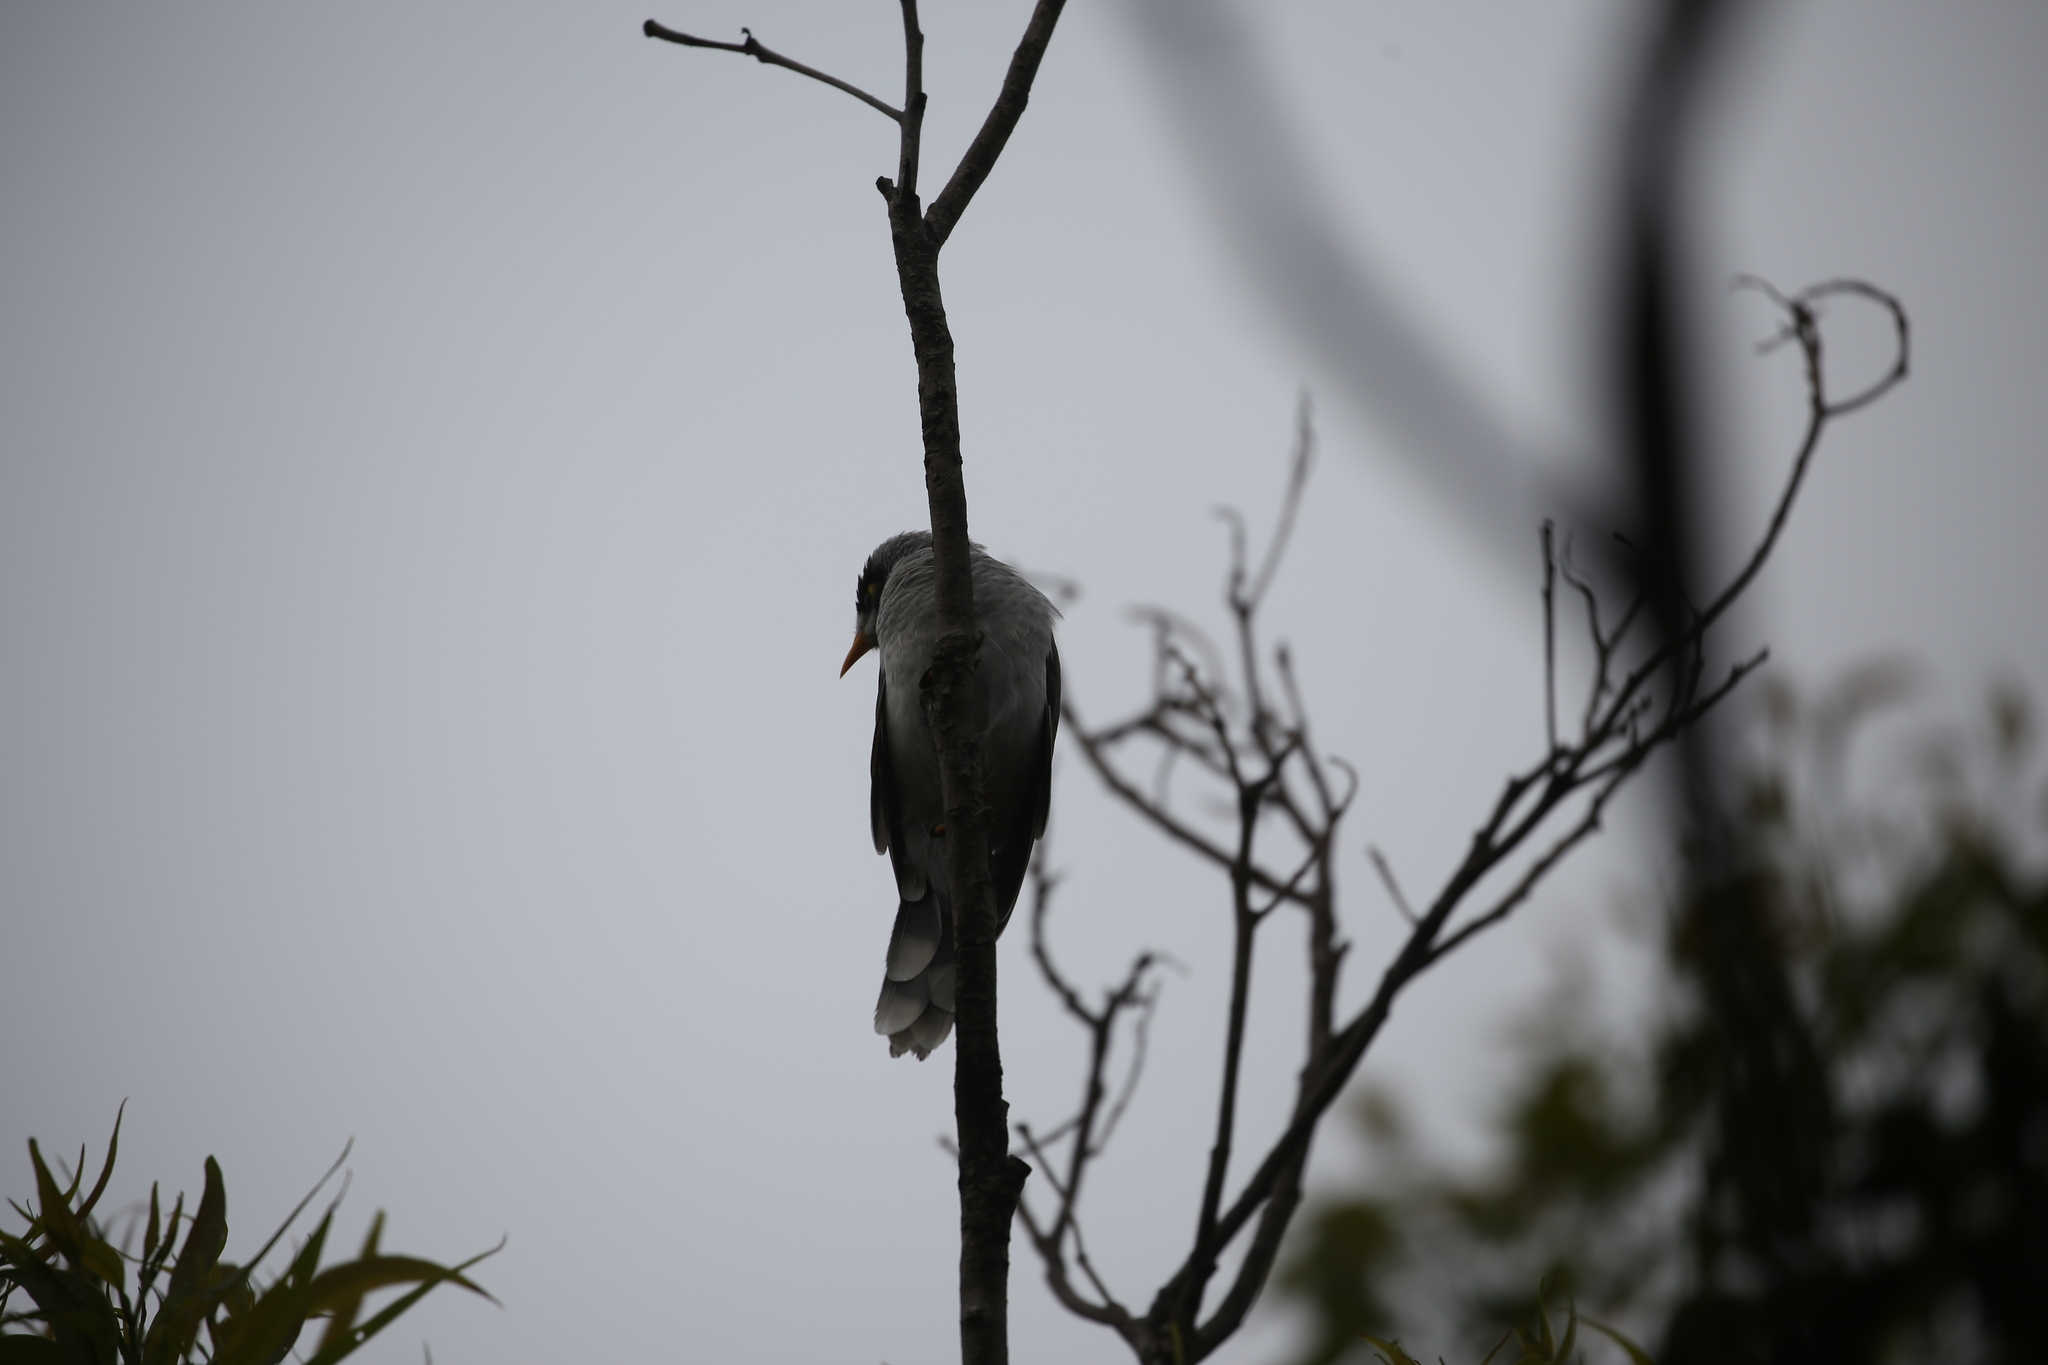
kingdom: Animalia
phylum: Chordata
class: Aves
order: Passeriformes
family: Meliphagidae
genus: Manorina
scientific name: Manorina melanocephala
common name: Noisy miner
